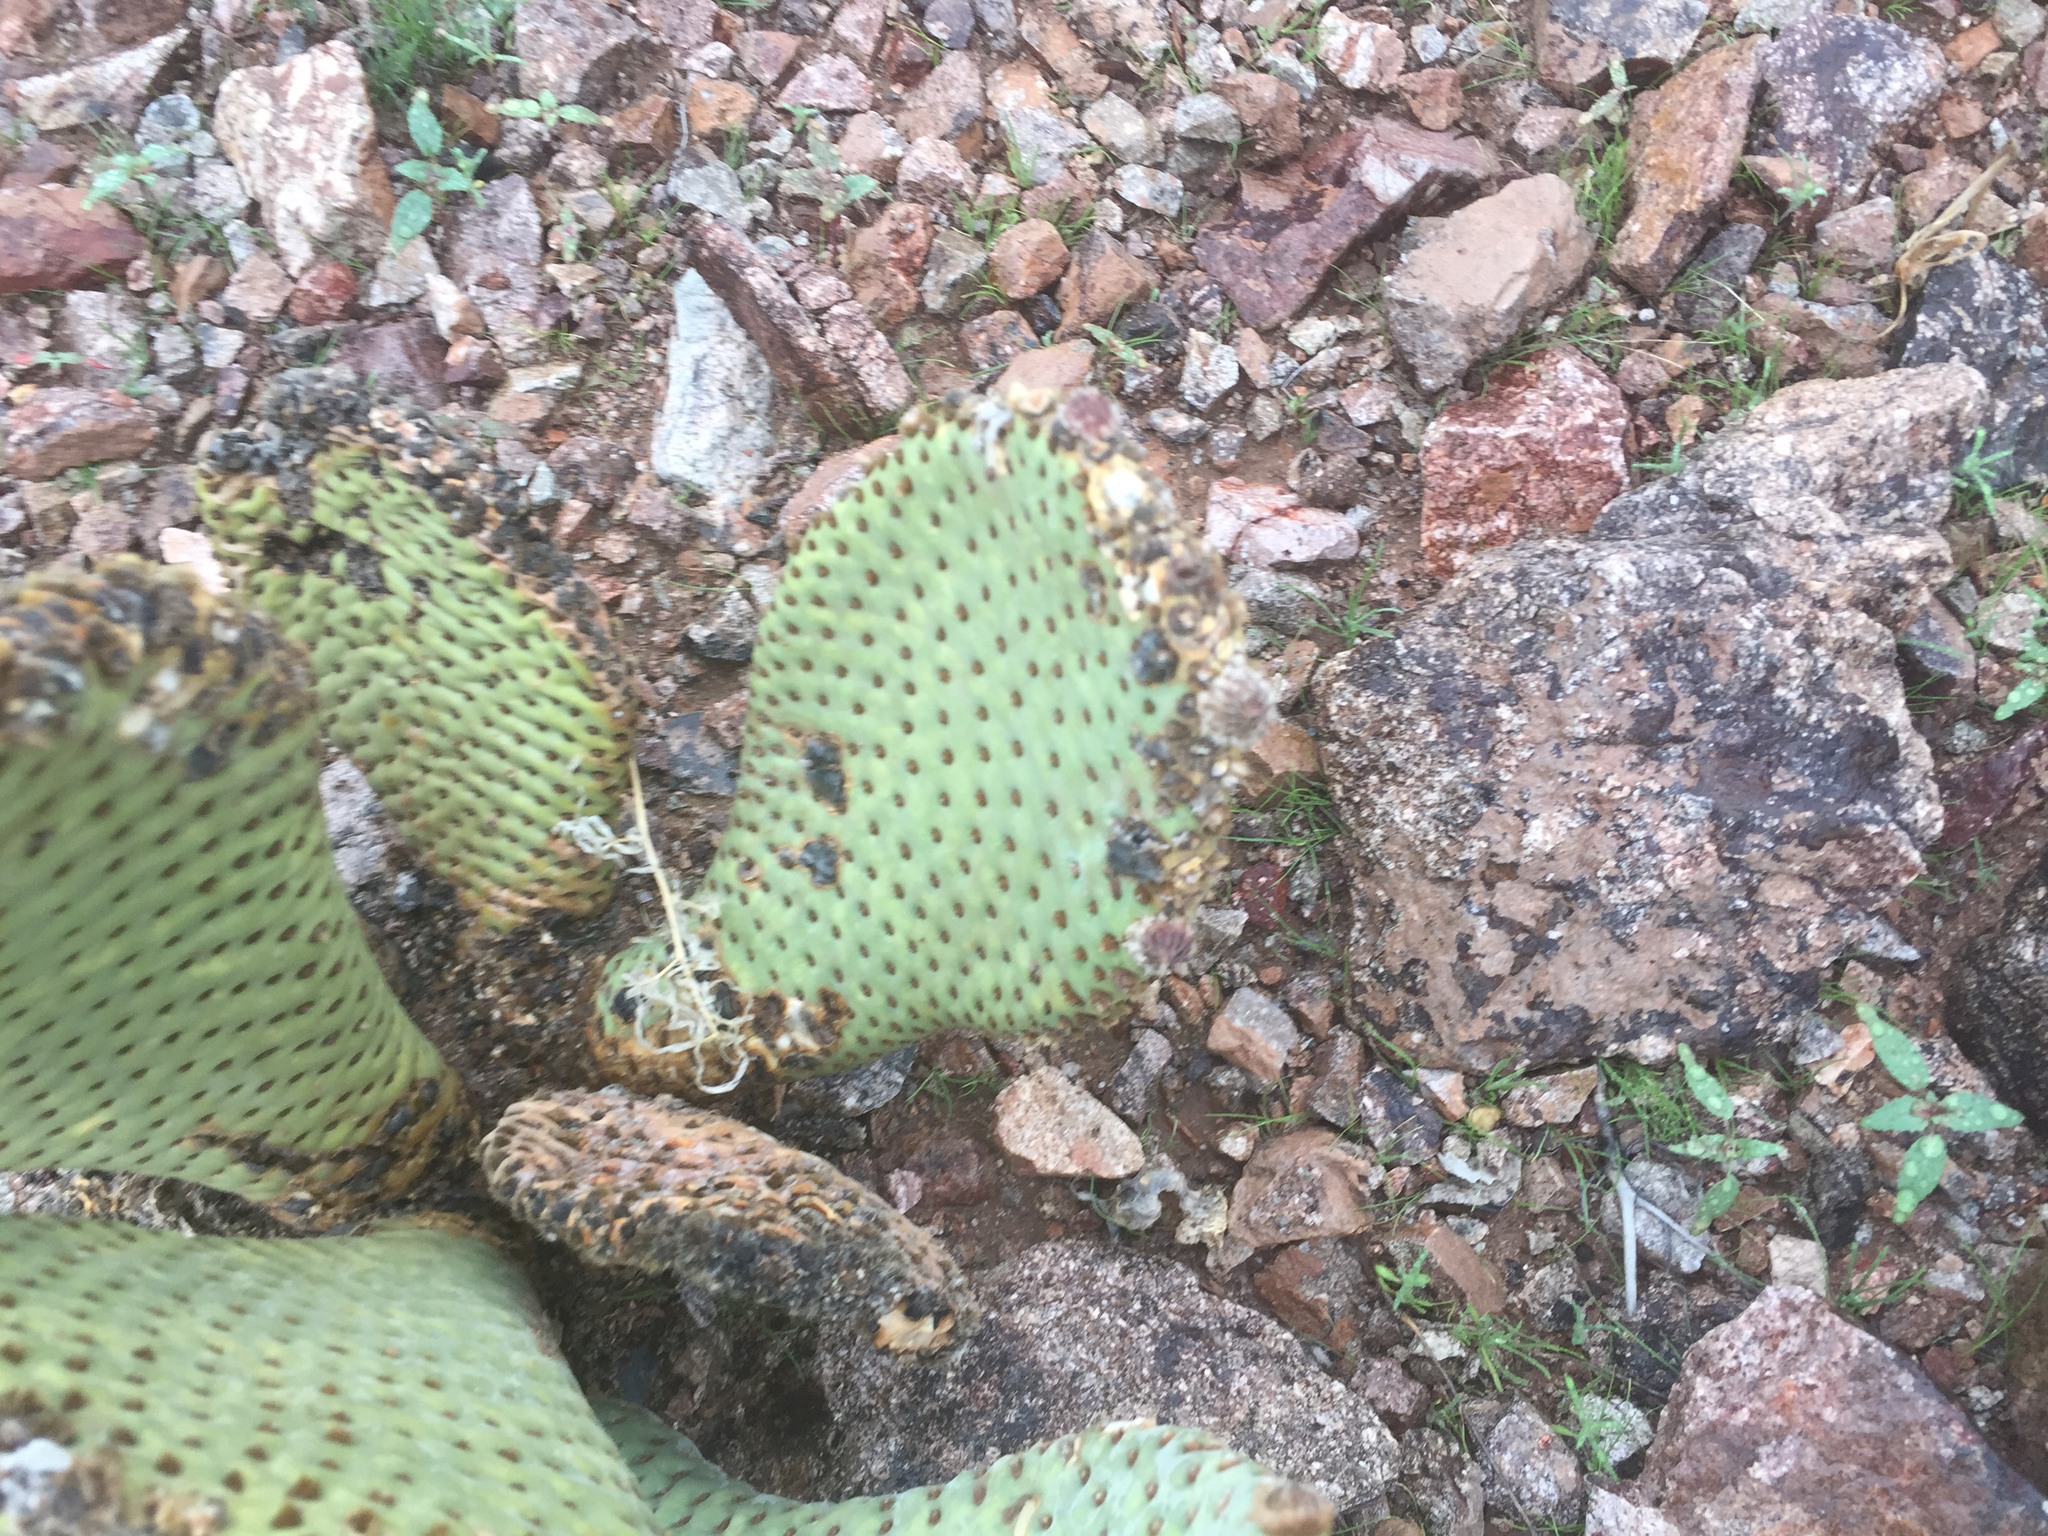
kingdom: Plantae
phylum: Tracheophyta
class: Magnoliopsida
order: Caryophyllales
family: Cactaceae
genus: Opuntia
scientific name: Opuntia basilaris
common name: Beavertail prickly-pear
